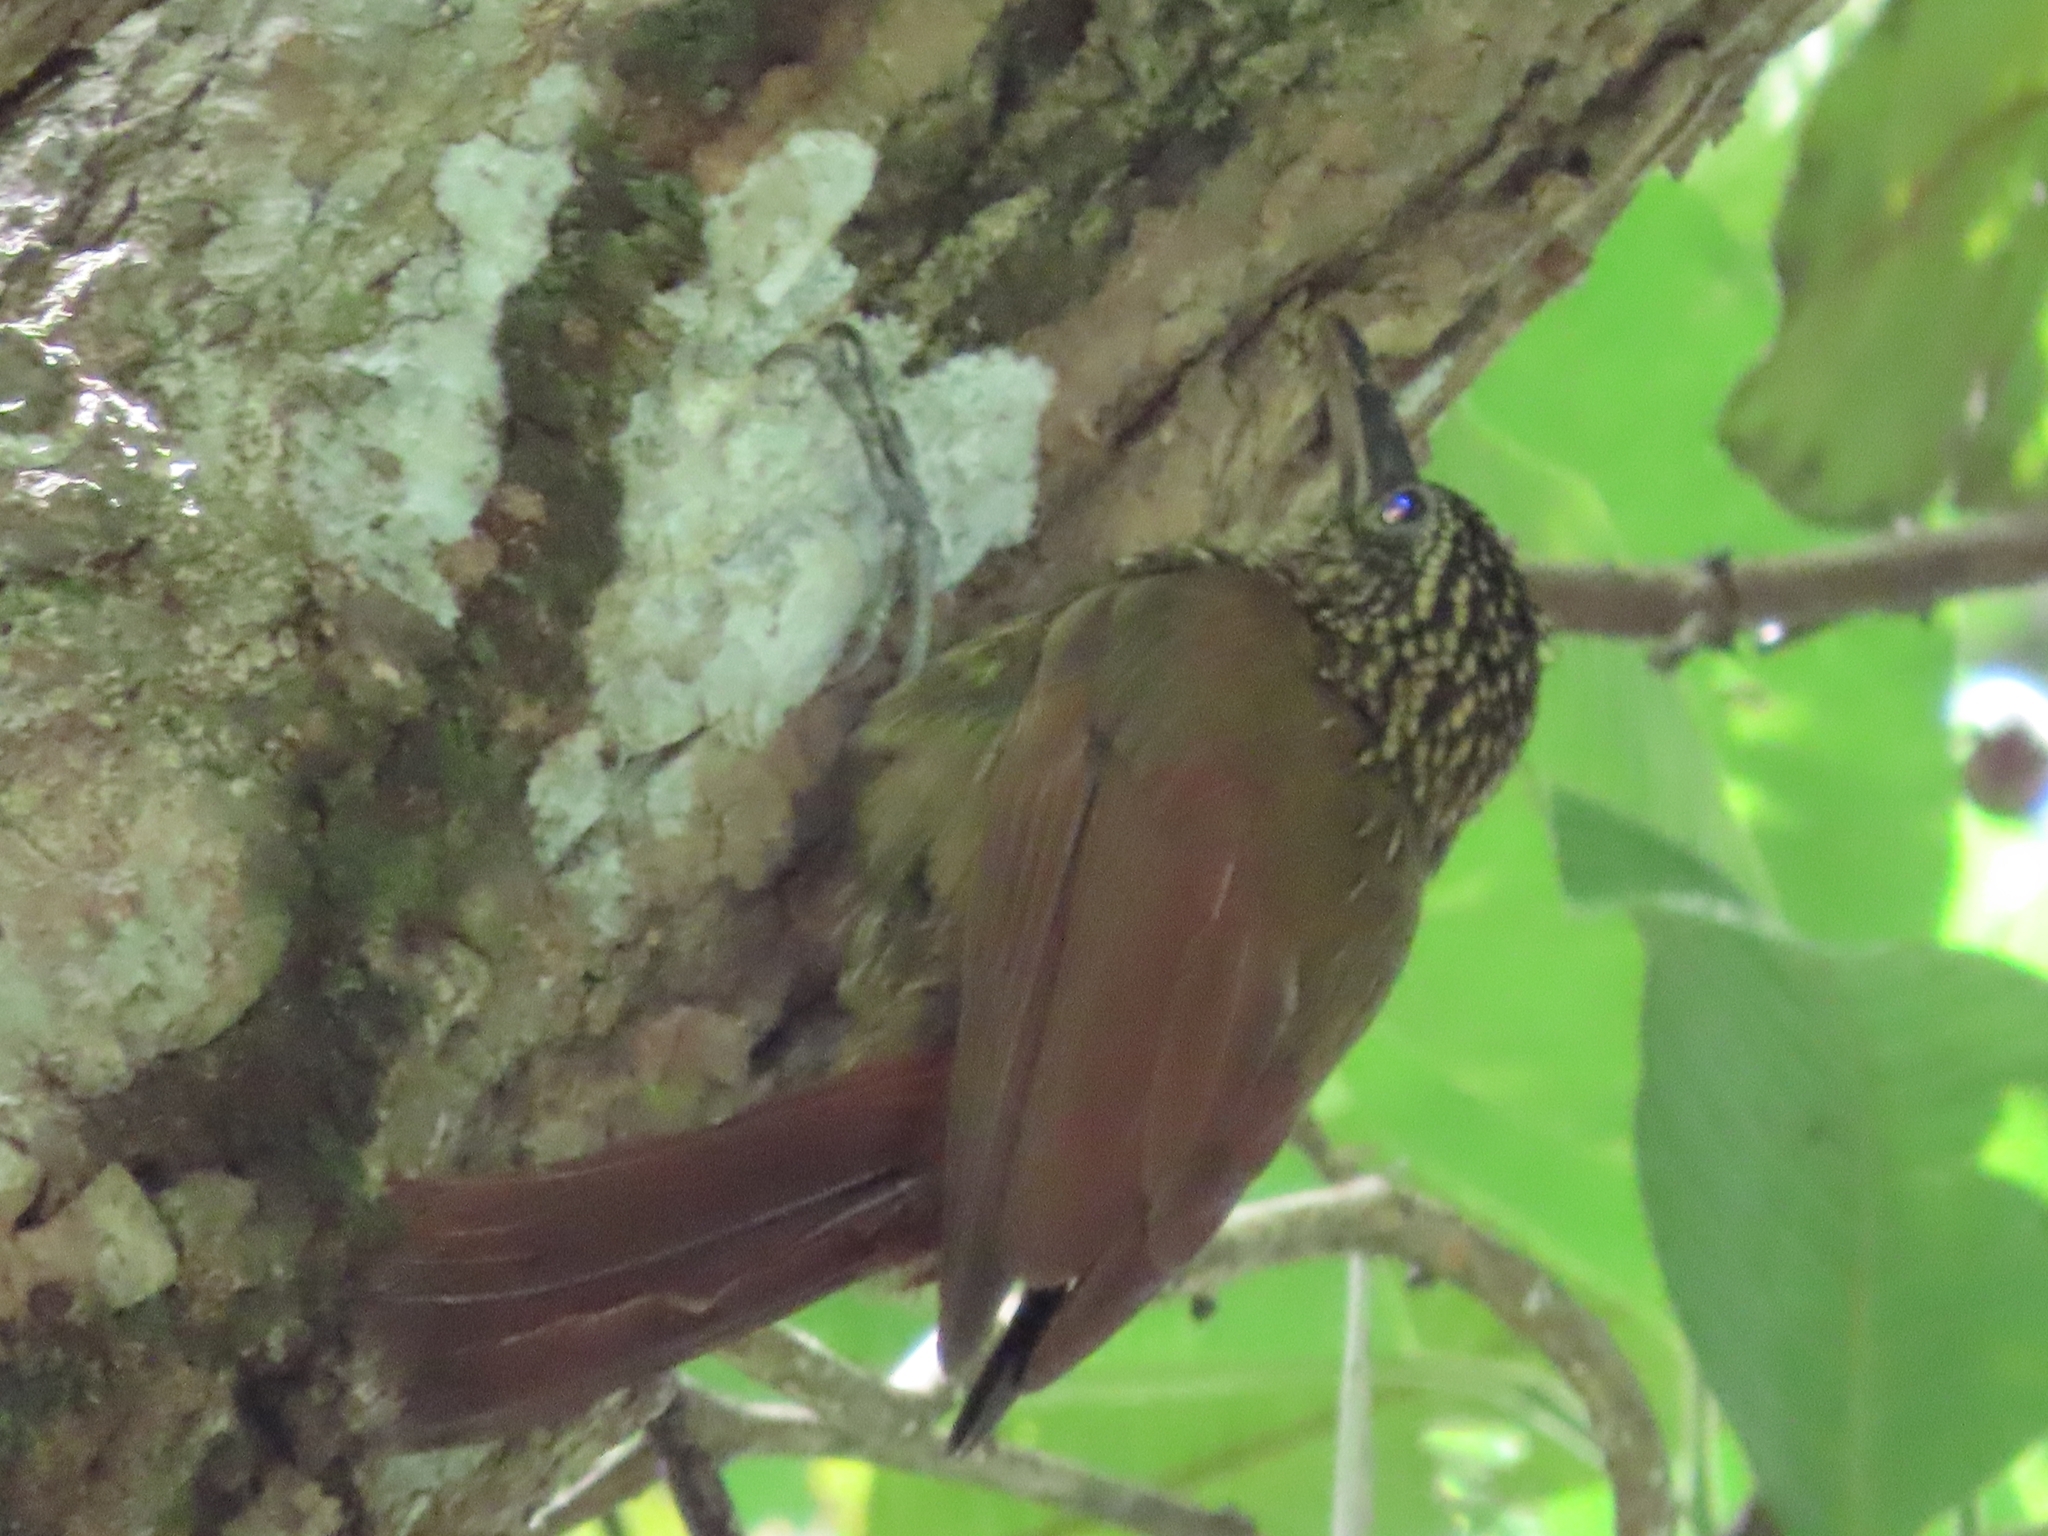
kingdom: Animalia
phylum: Chordata
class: Aves
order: Passeriformes
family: Furnariidae
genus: Xiphorhynchus
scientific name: Xiphorhynchus susurrans
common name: Cocoa woodcreeper
